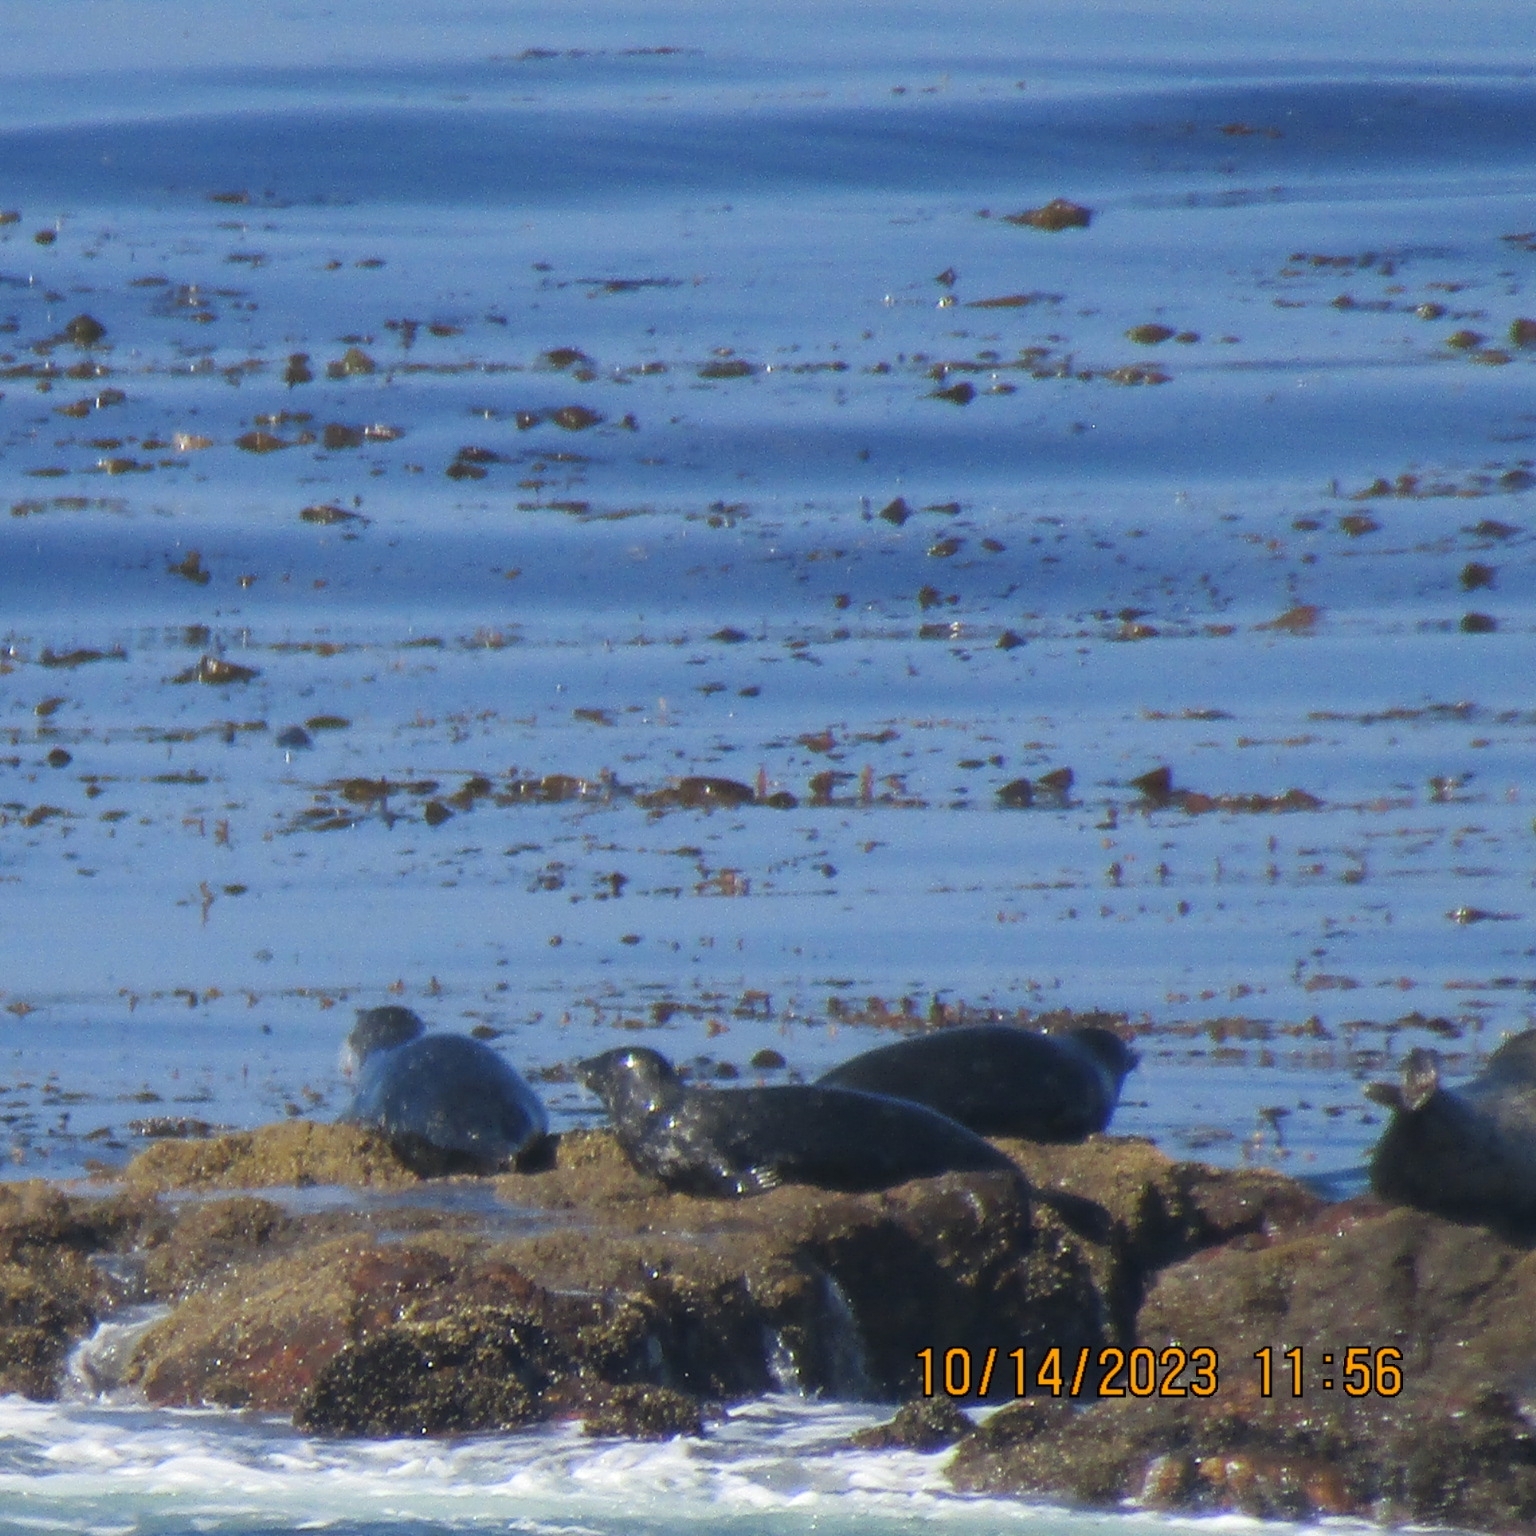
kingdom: Animalia
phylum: Chordata
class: Mammalia
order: Carnivora
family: Phocidae
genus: Phoca
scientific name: Phoca vitulina
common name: Harbor seal
